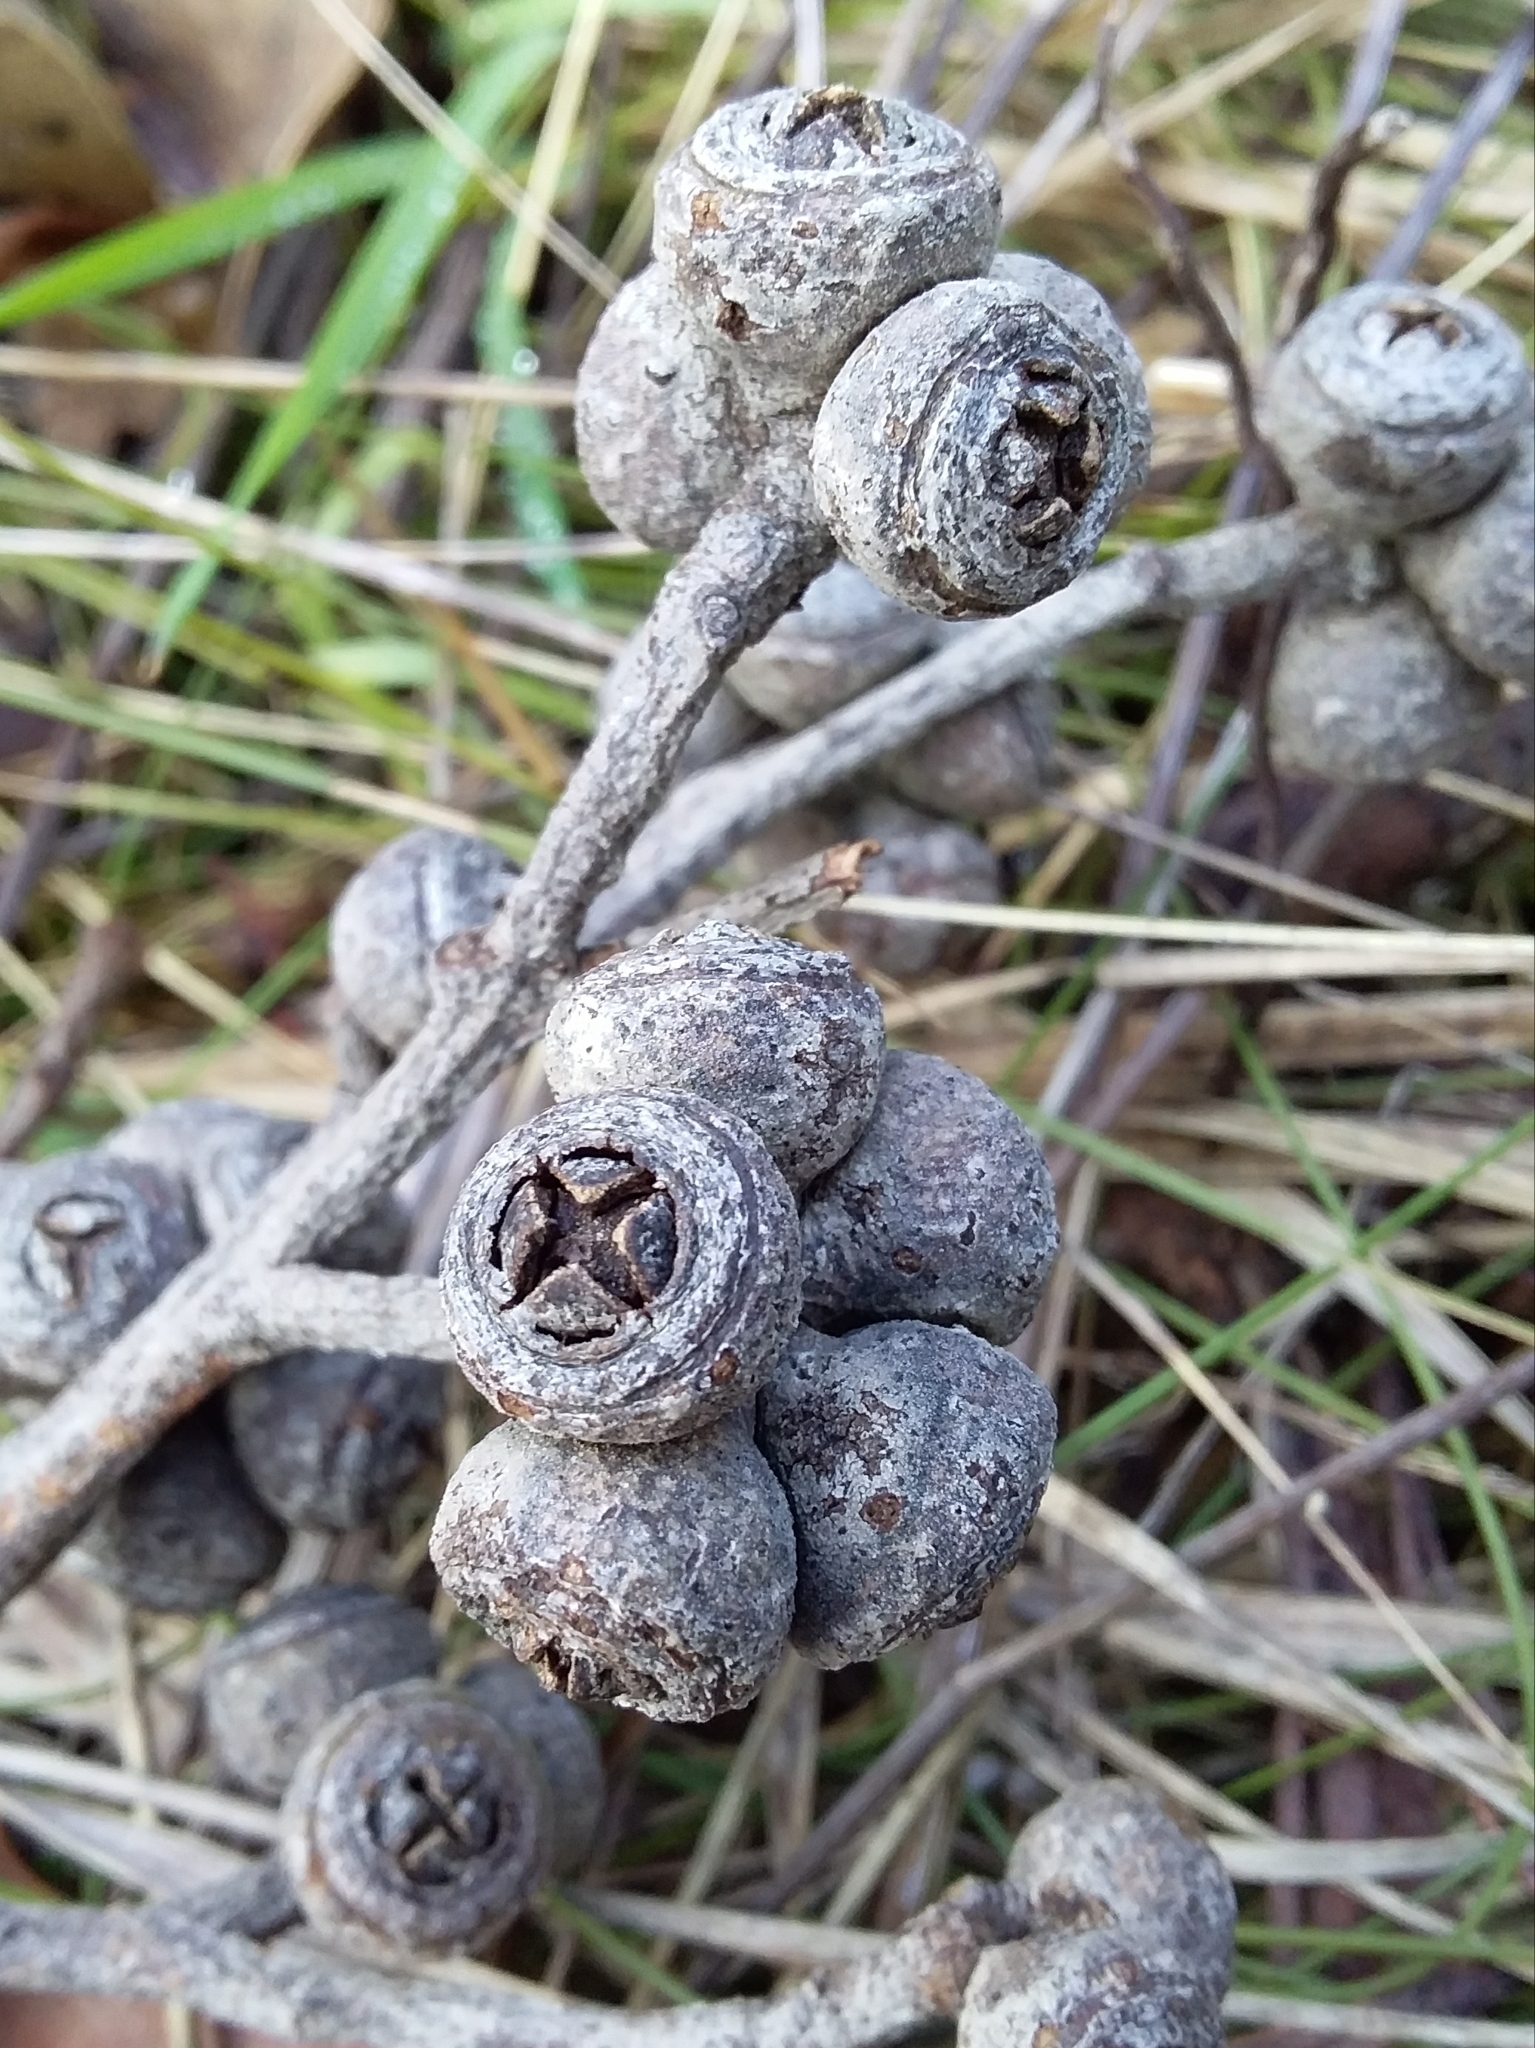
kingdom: Plantae
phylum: Tracheophyta
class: Magnoliopsida
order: Myrtales
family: Myrtaceae
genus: Eucalyptus
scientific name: Eucalyptus baxteri
